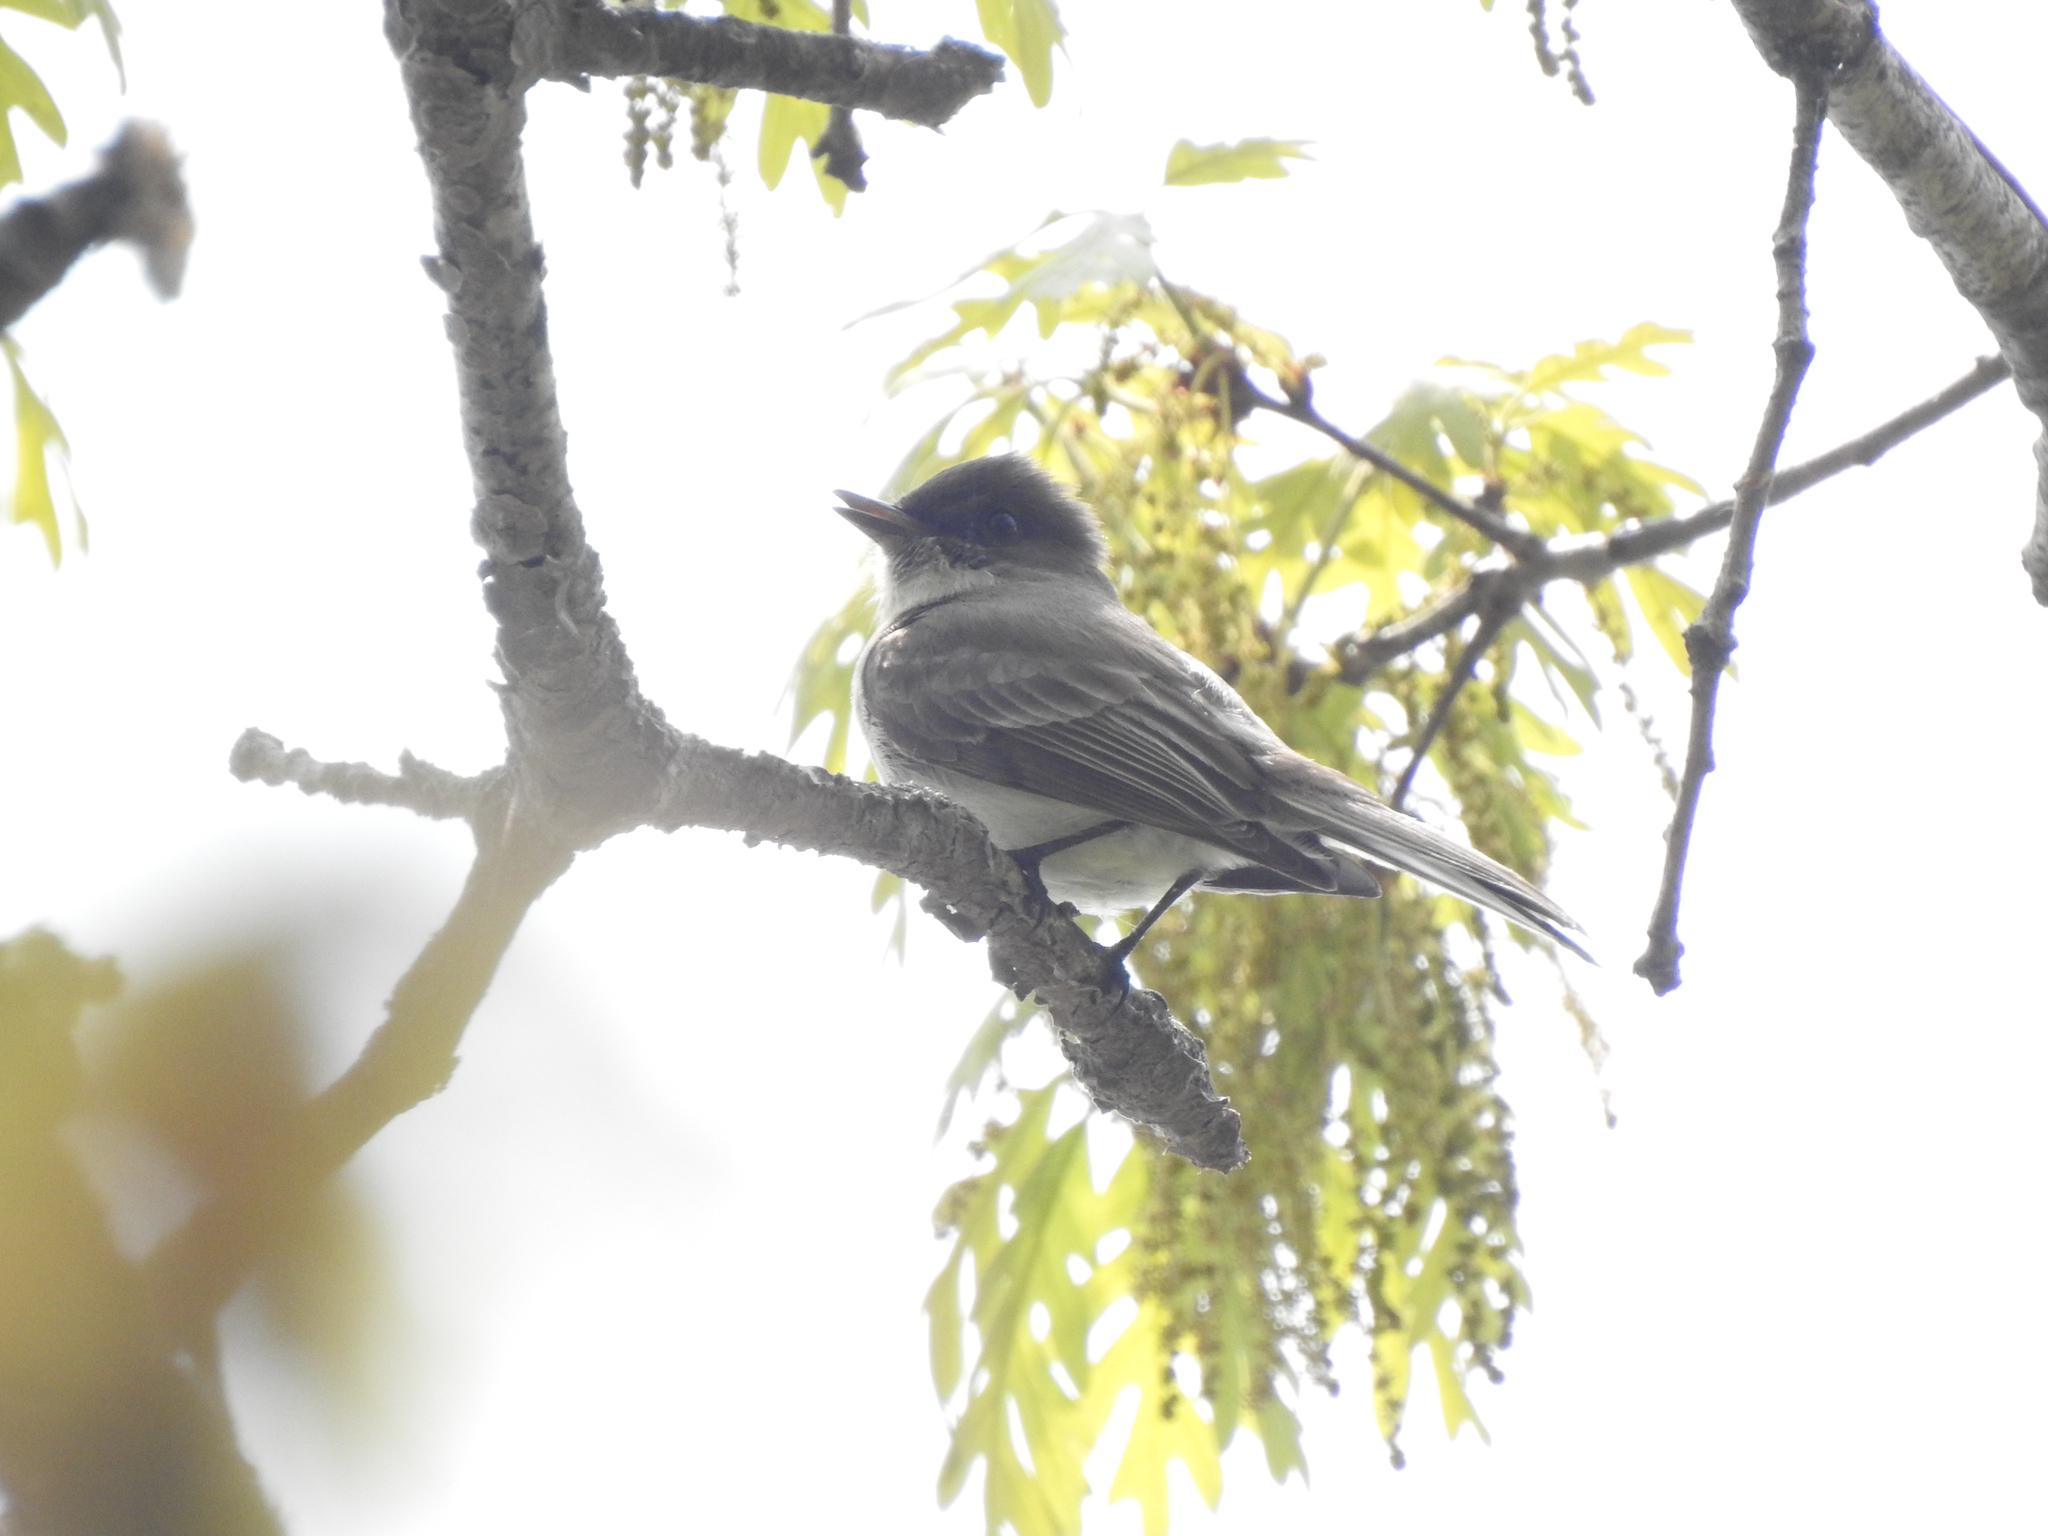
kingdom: Animalia
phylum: Chordata
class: Aves
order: Passeriformes
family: Tyrannidae
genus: Sayornis
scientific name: Sayornis phoebe
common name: Eastern phoebe
